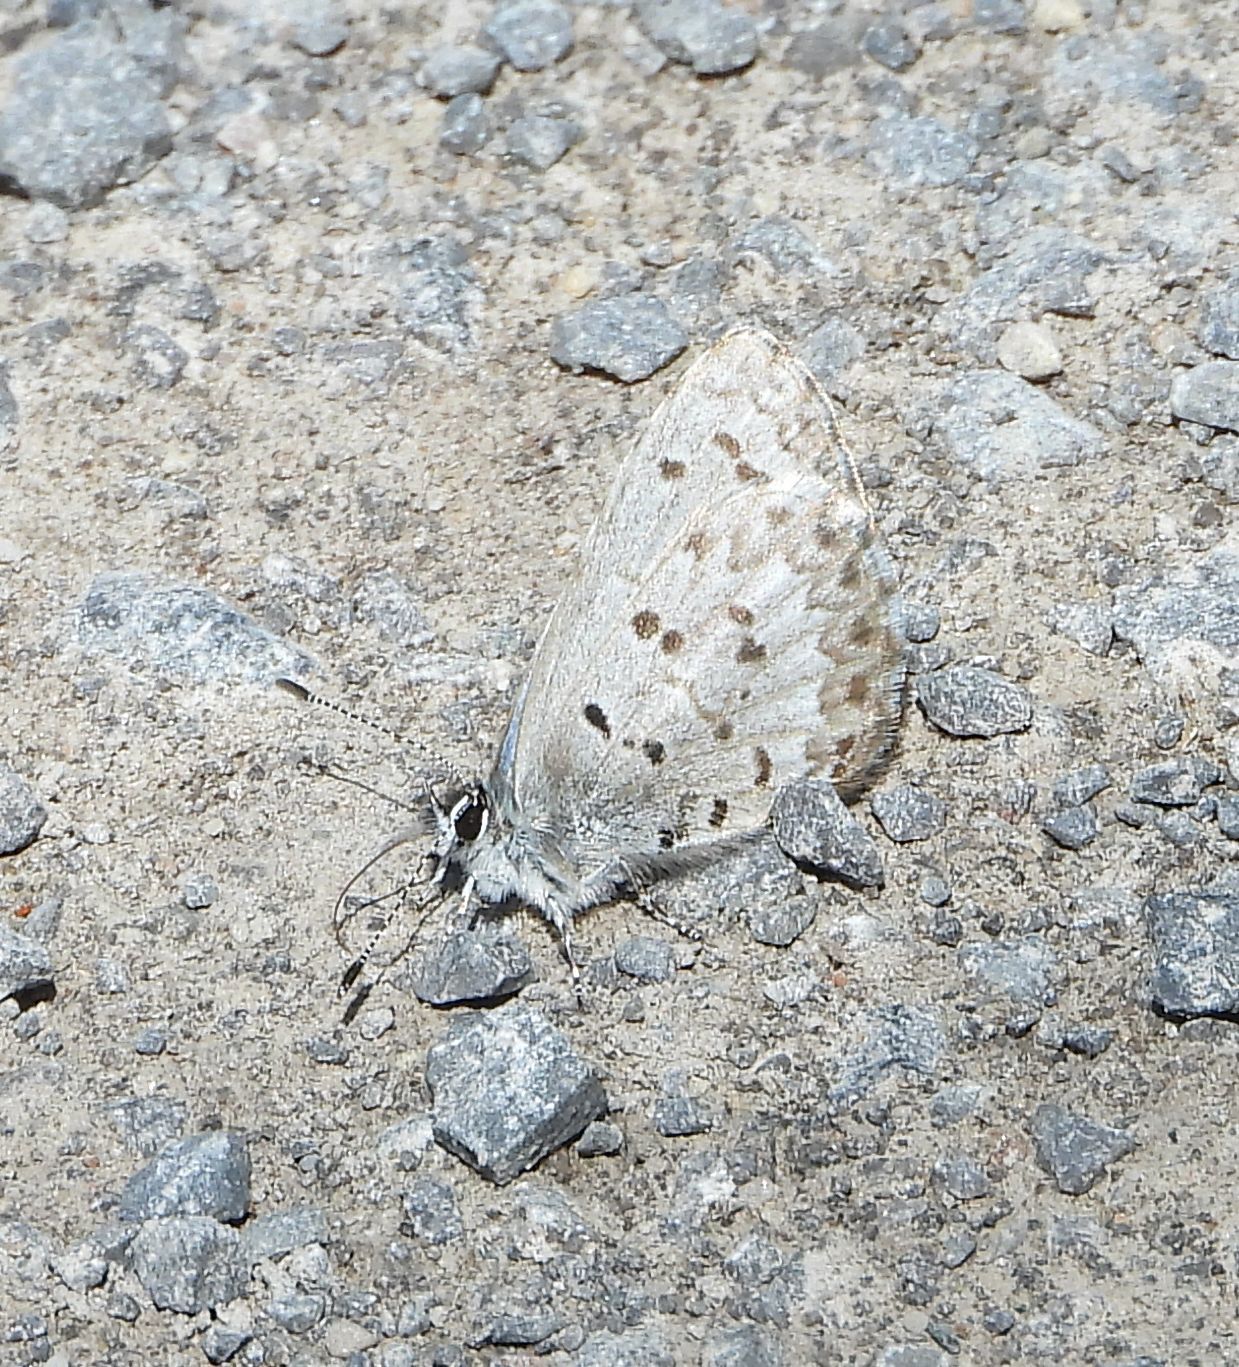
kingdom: Animalia
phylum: Arthropoda
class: Insecta
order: Lepidoptera
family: Lycaenidae
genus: Celastrina
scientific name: Celastrina lucia
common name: Lucia azure
